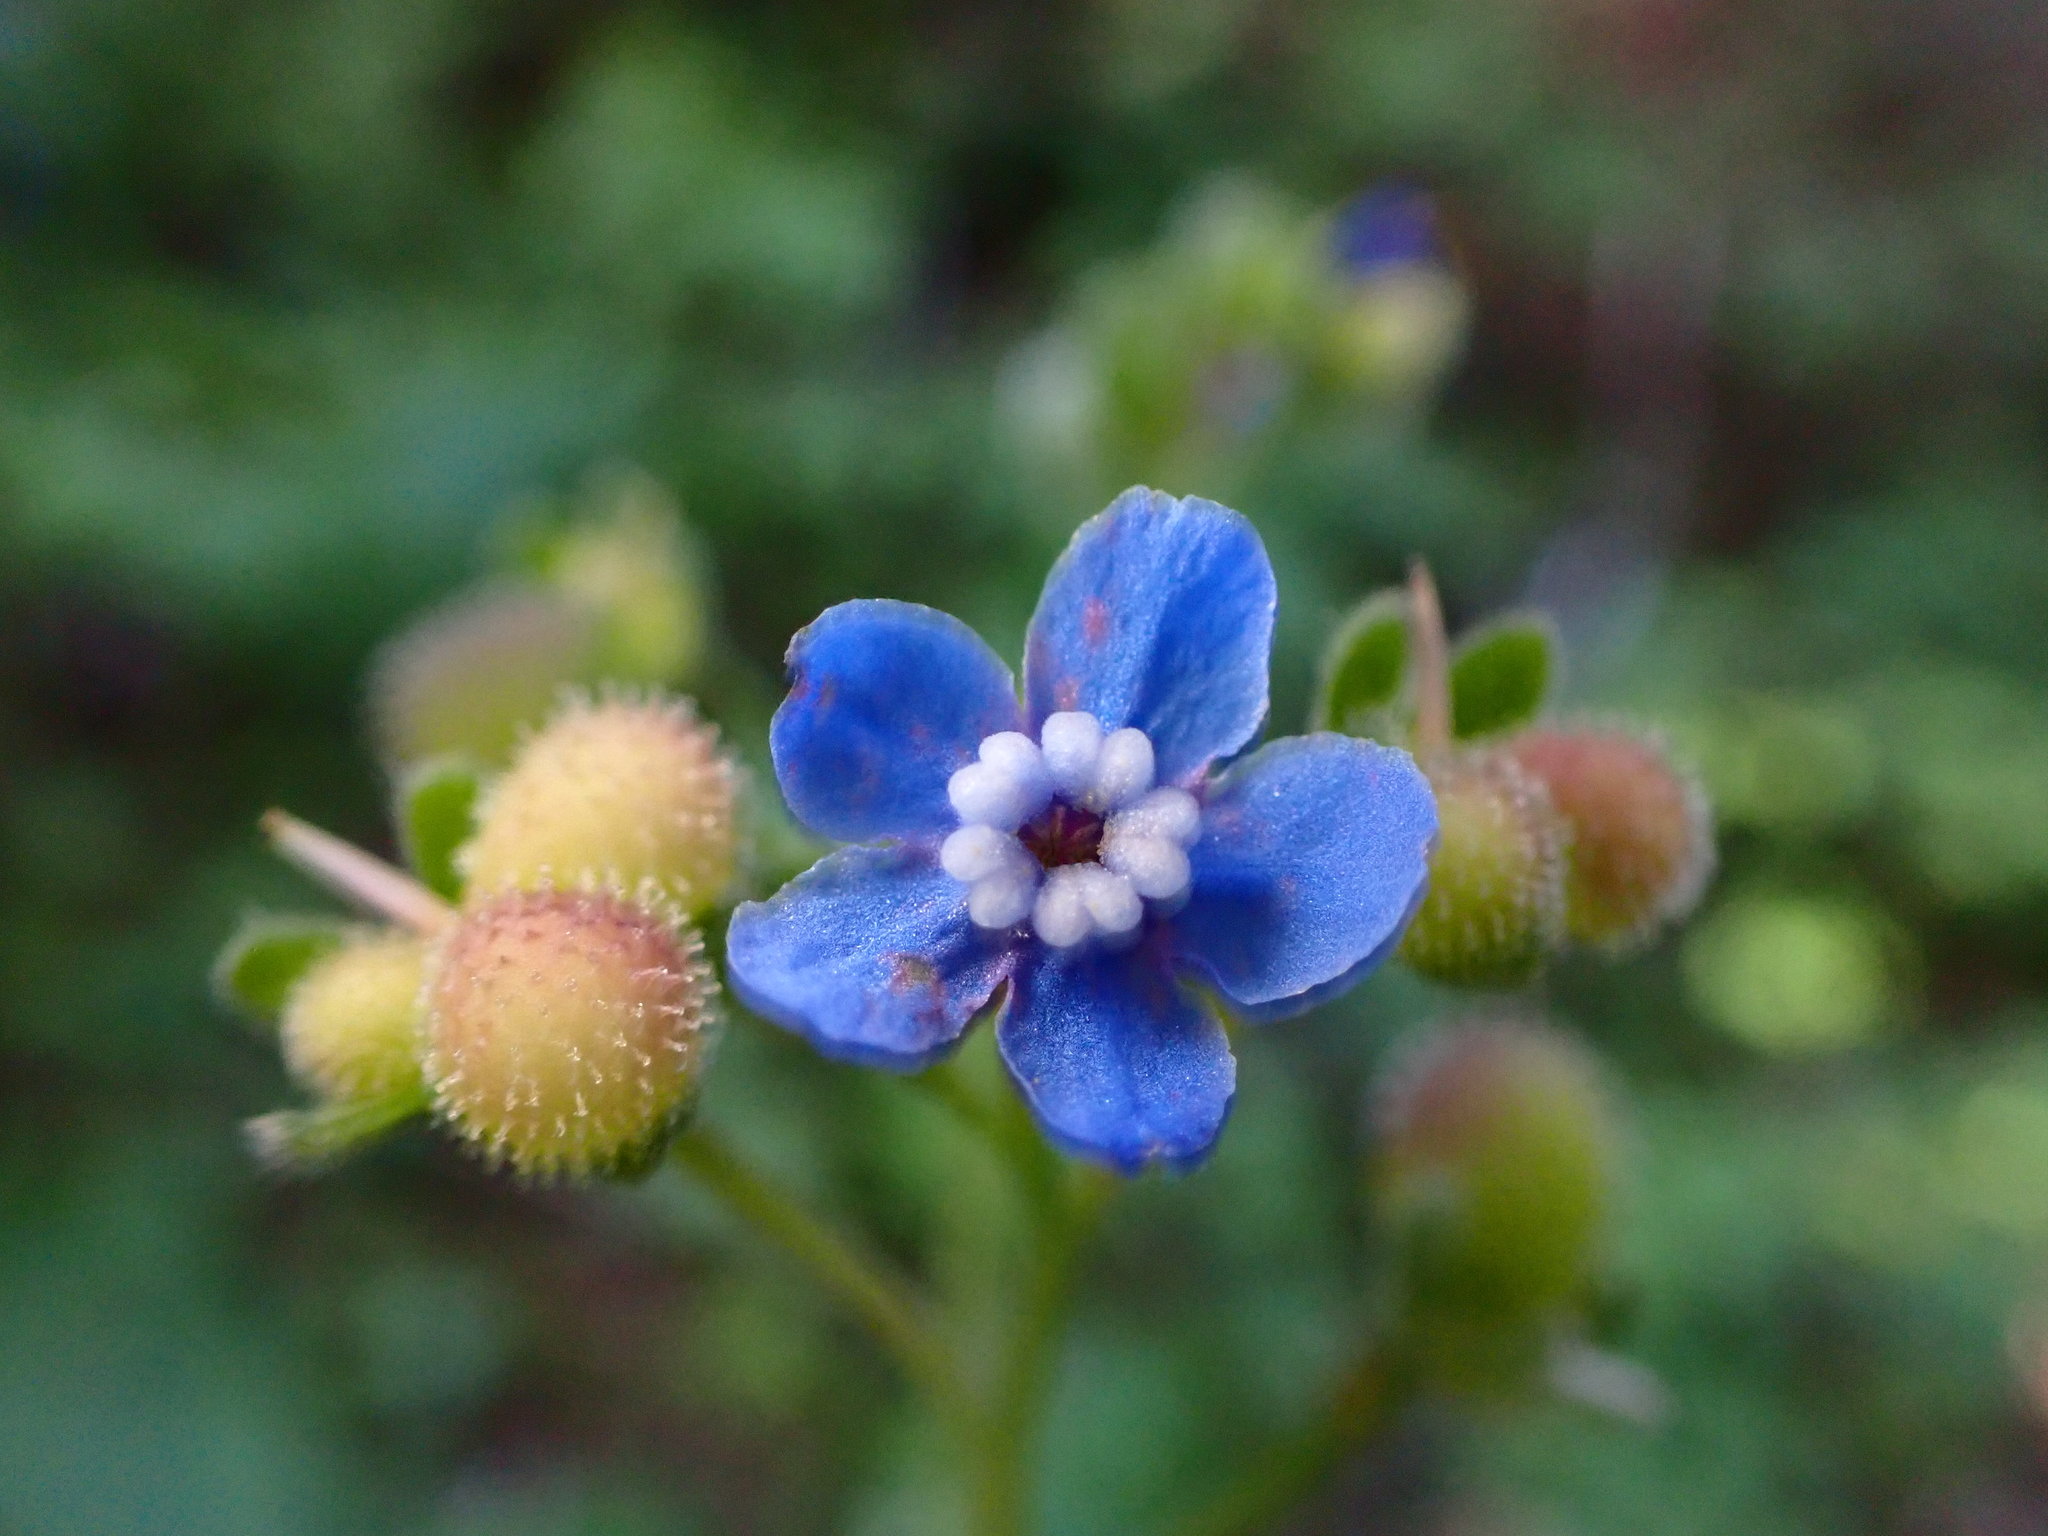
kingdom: Plantae
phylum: Tracheophyta
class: Magnoliopsida
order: Boraginales
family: Boraginaceae
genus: Adelinia
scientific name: Adelinia grande
